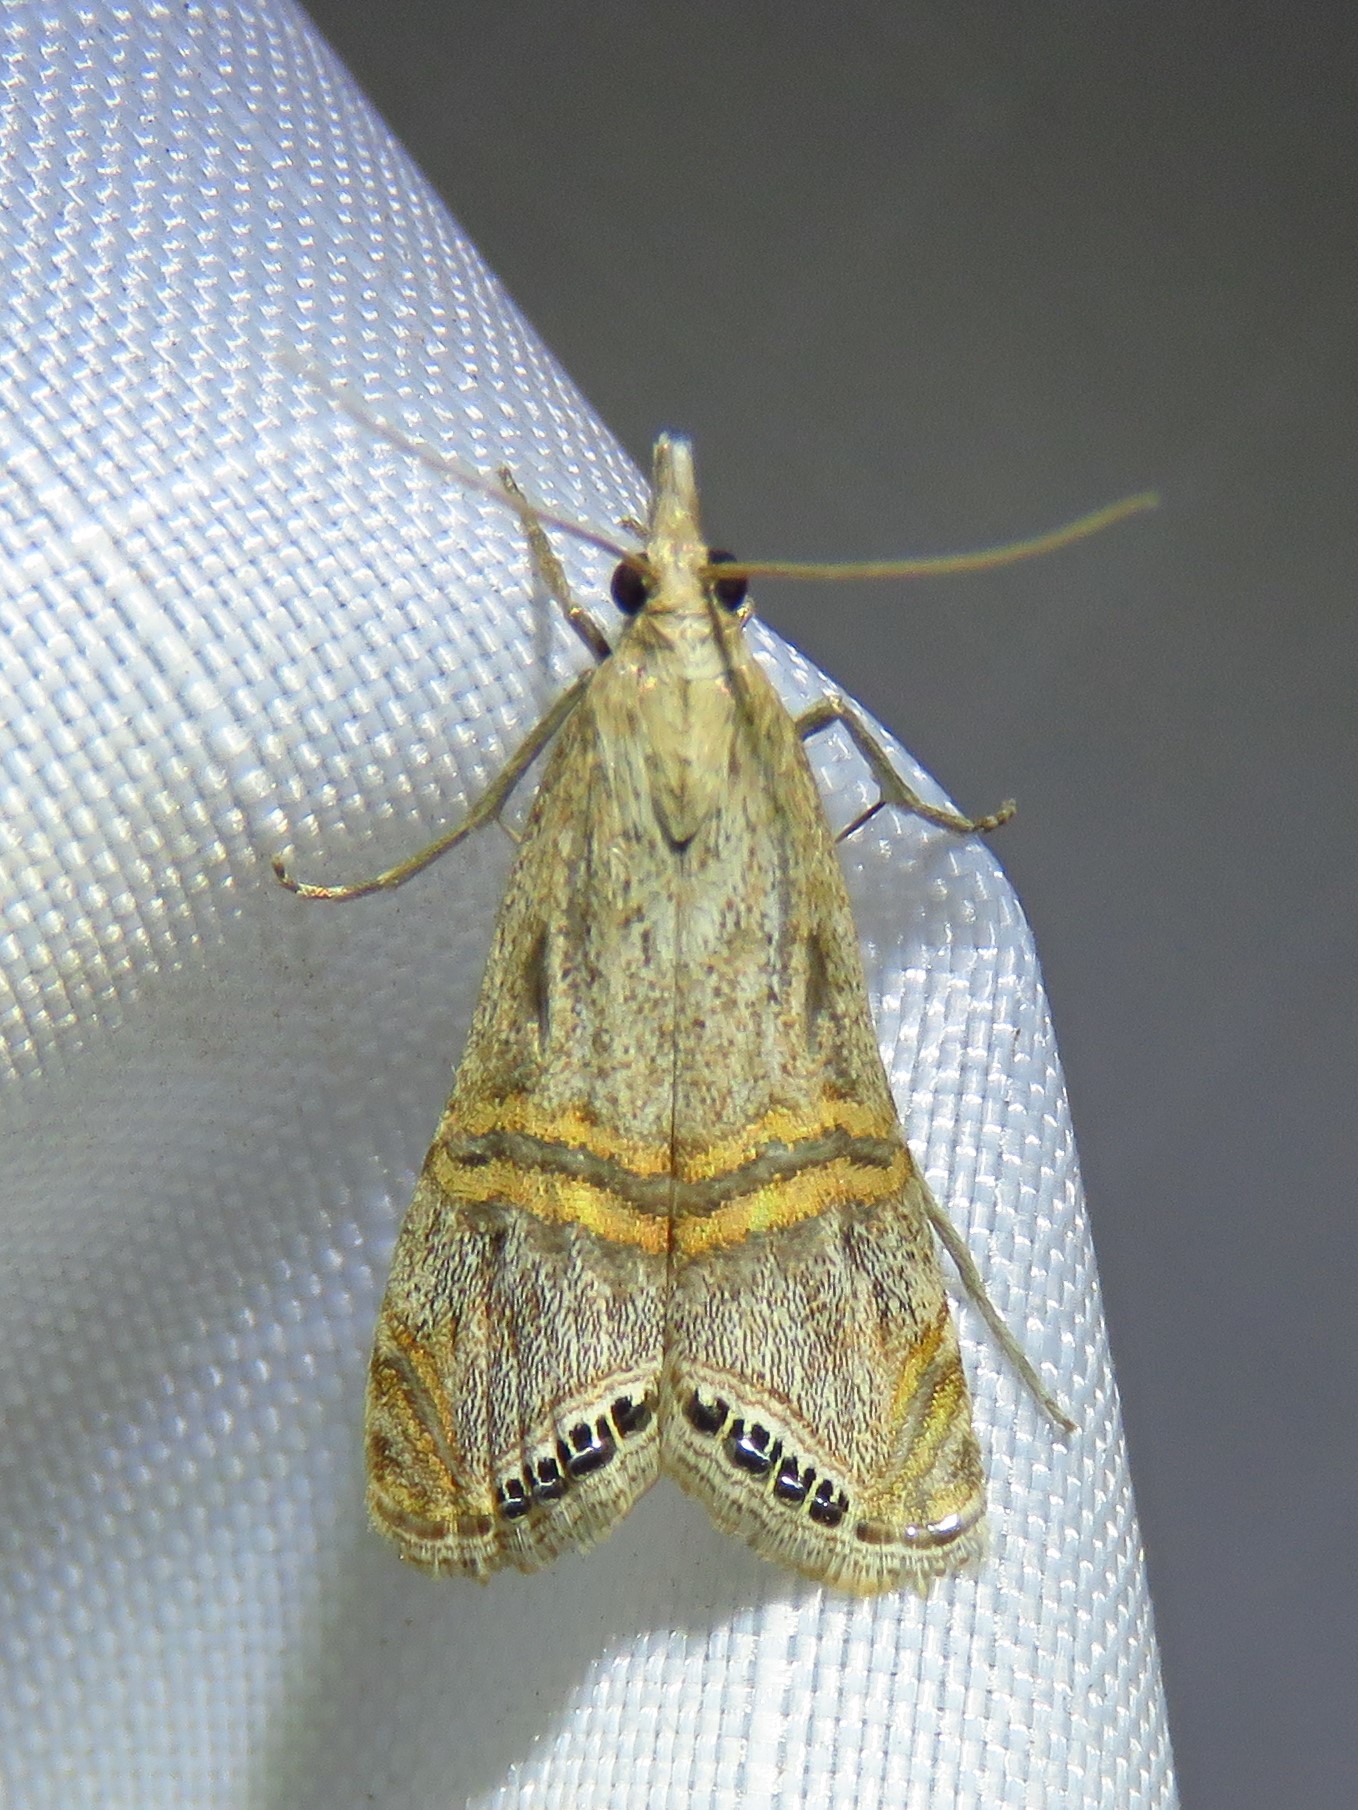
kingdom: Animalia
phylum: Arthropoda
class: Insecta
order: Lepidoptera
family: Crambidae
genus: Euchromius
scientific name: Euchromius ocellea
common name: Necklace veneer moth
